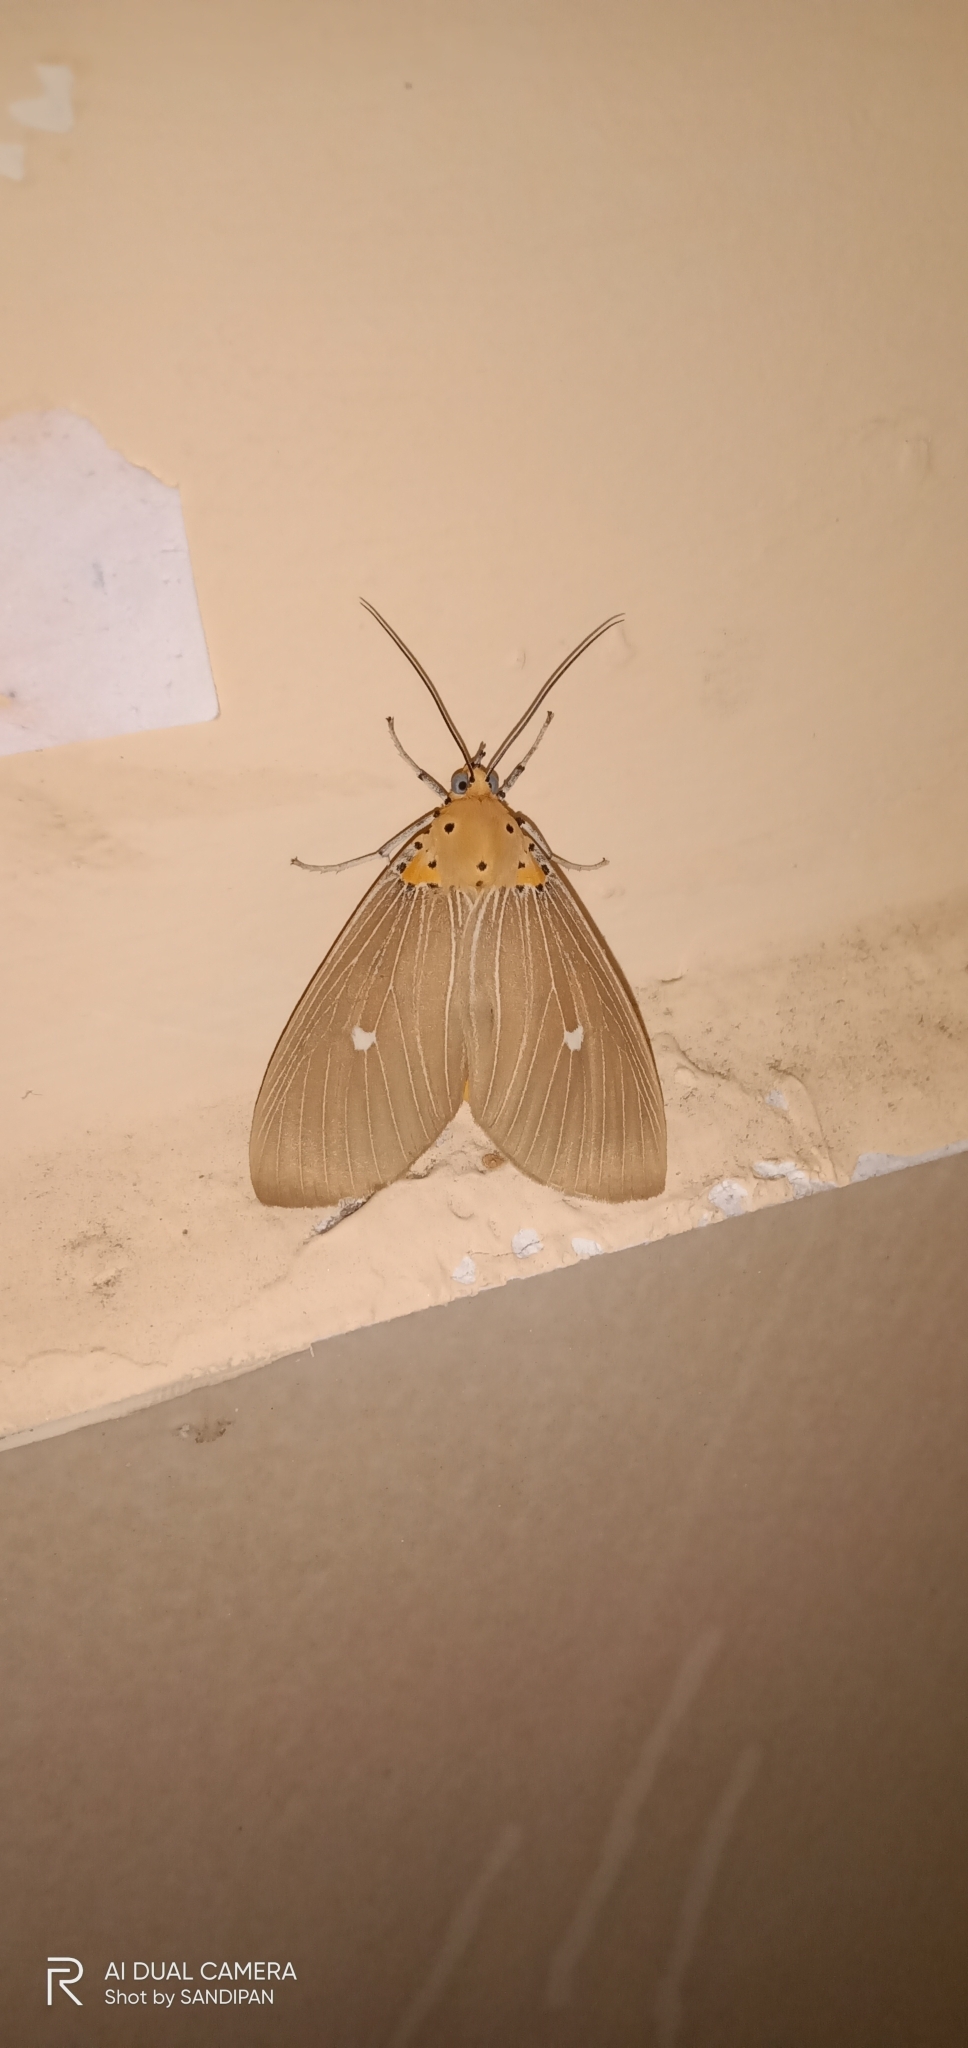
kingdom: Animalia
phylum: Arthropoda
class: Insecta
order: Lepidoptera
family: Erebidae
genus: Asota
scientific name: Asota caricae
